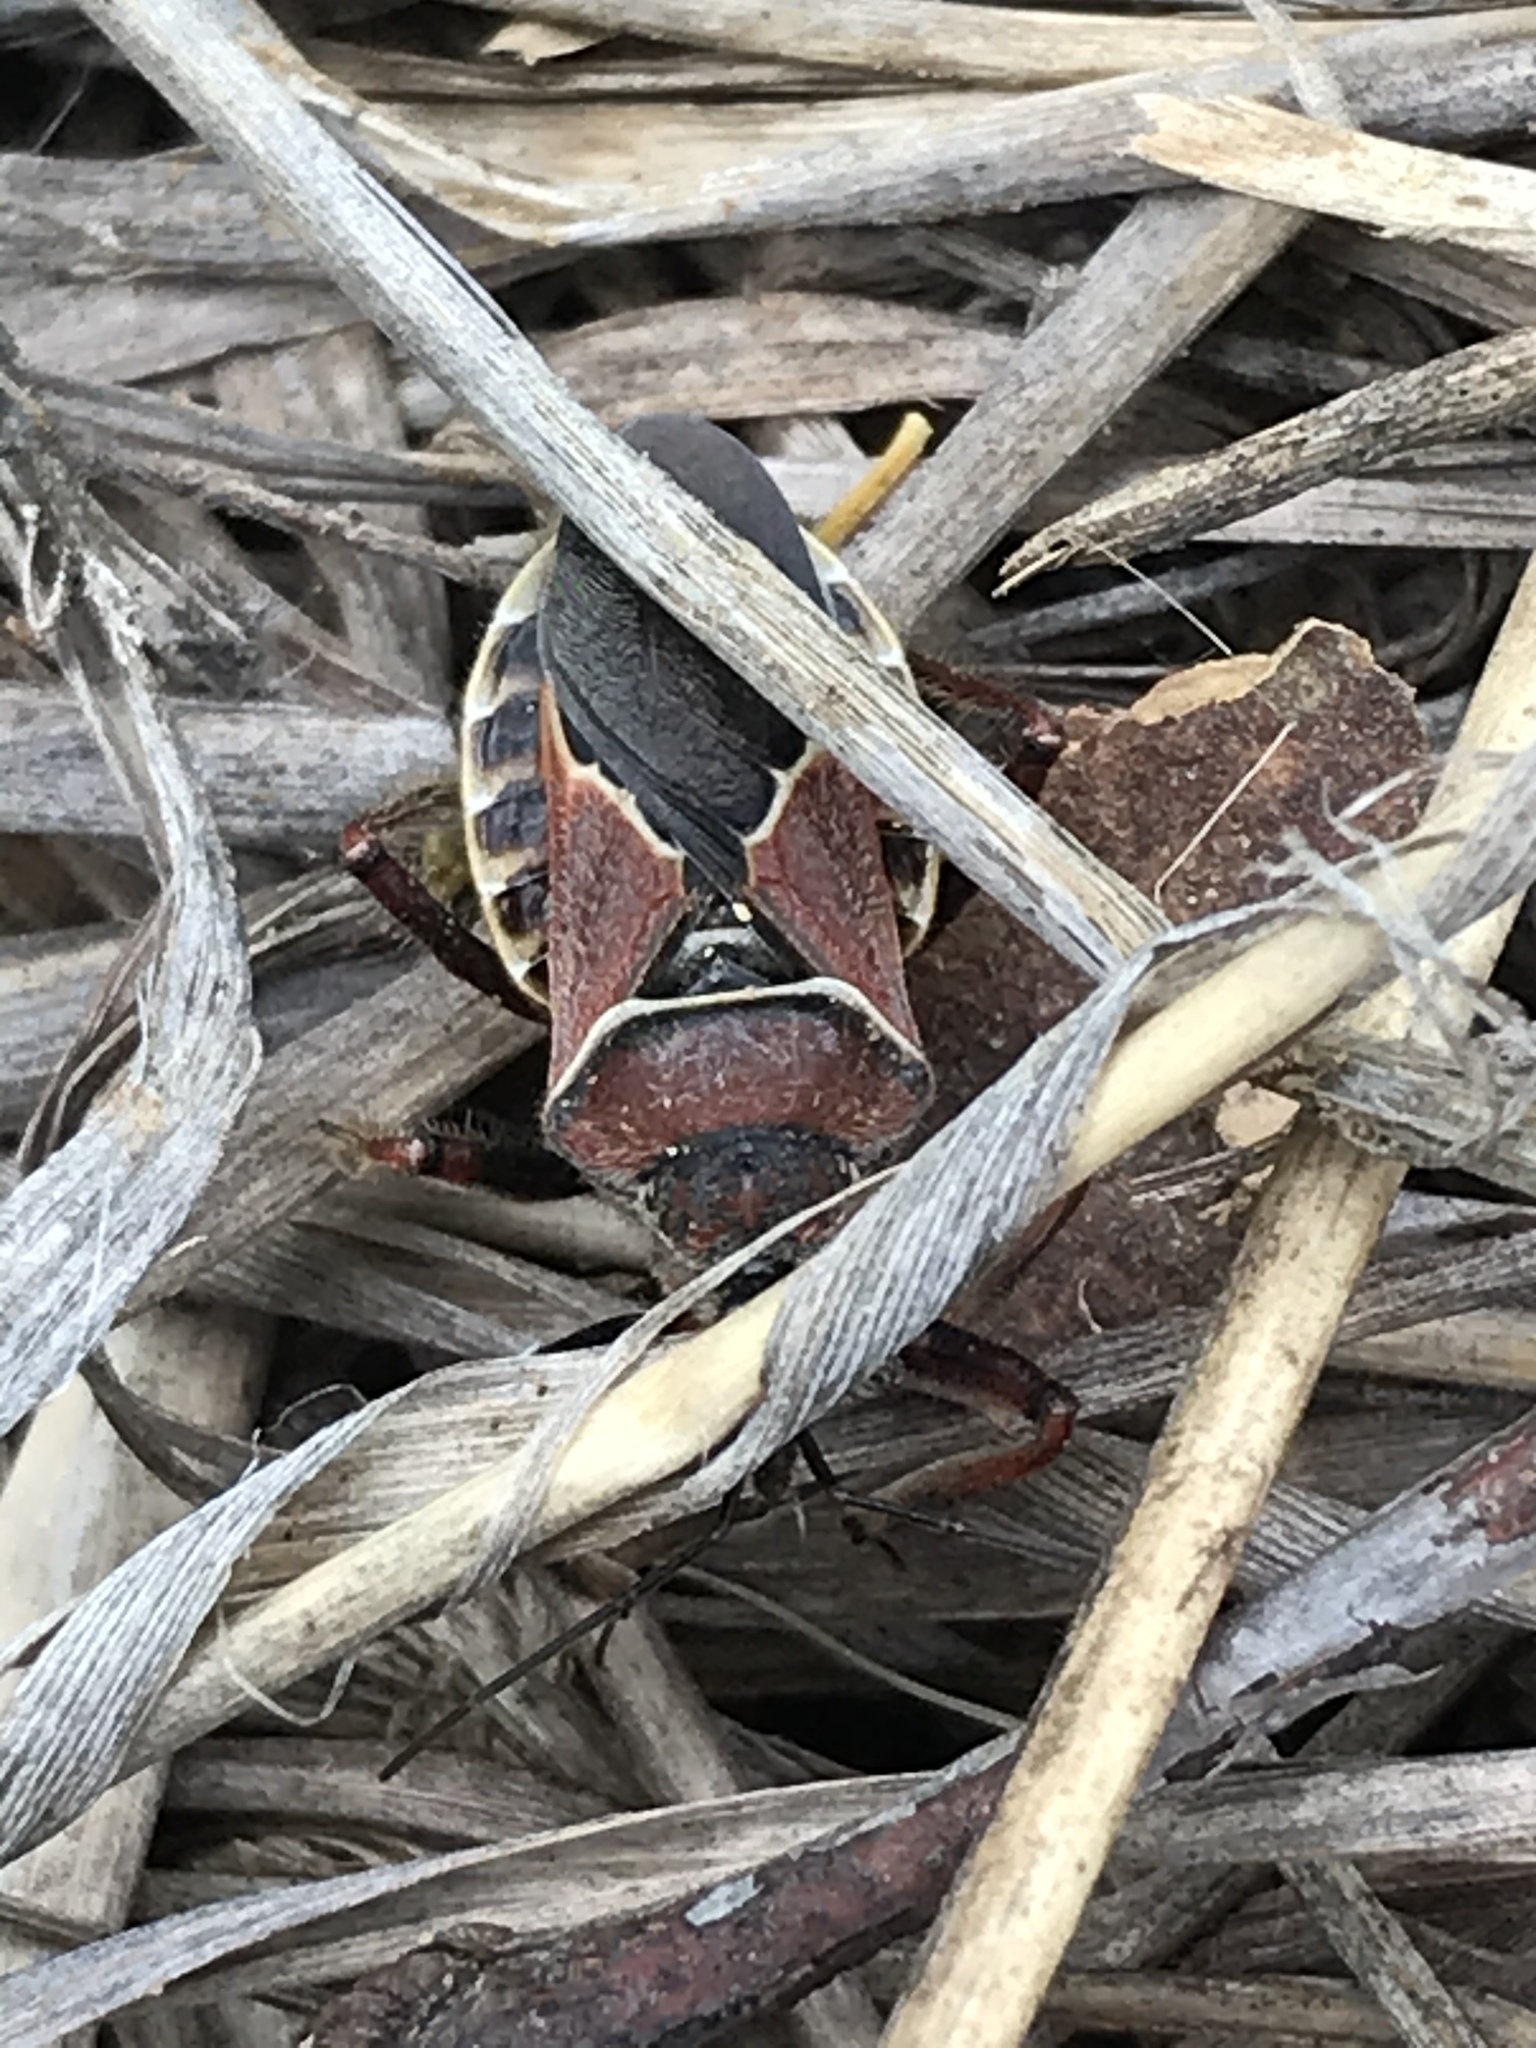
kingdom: Animalia
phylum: Arthropoda
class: Insecta
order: Hemiptera
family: Reduviidae
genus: Apiomerus
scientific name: Apiomerus spissipes
